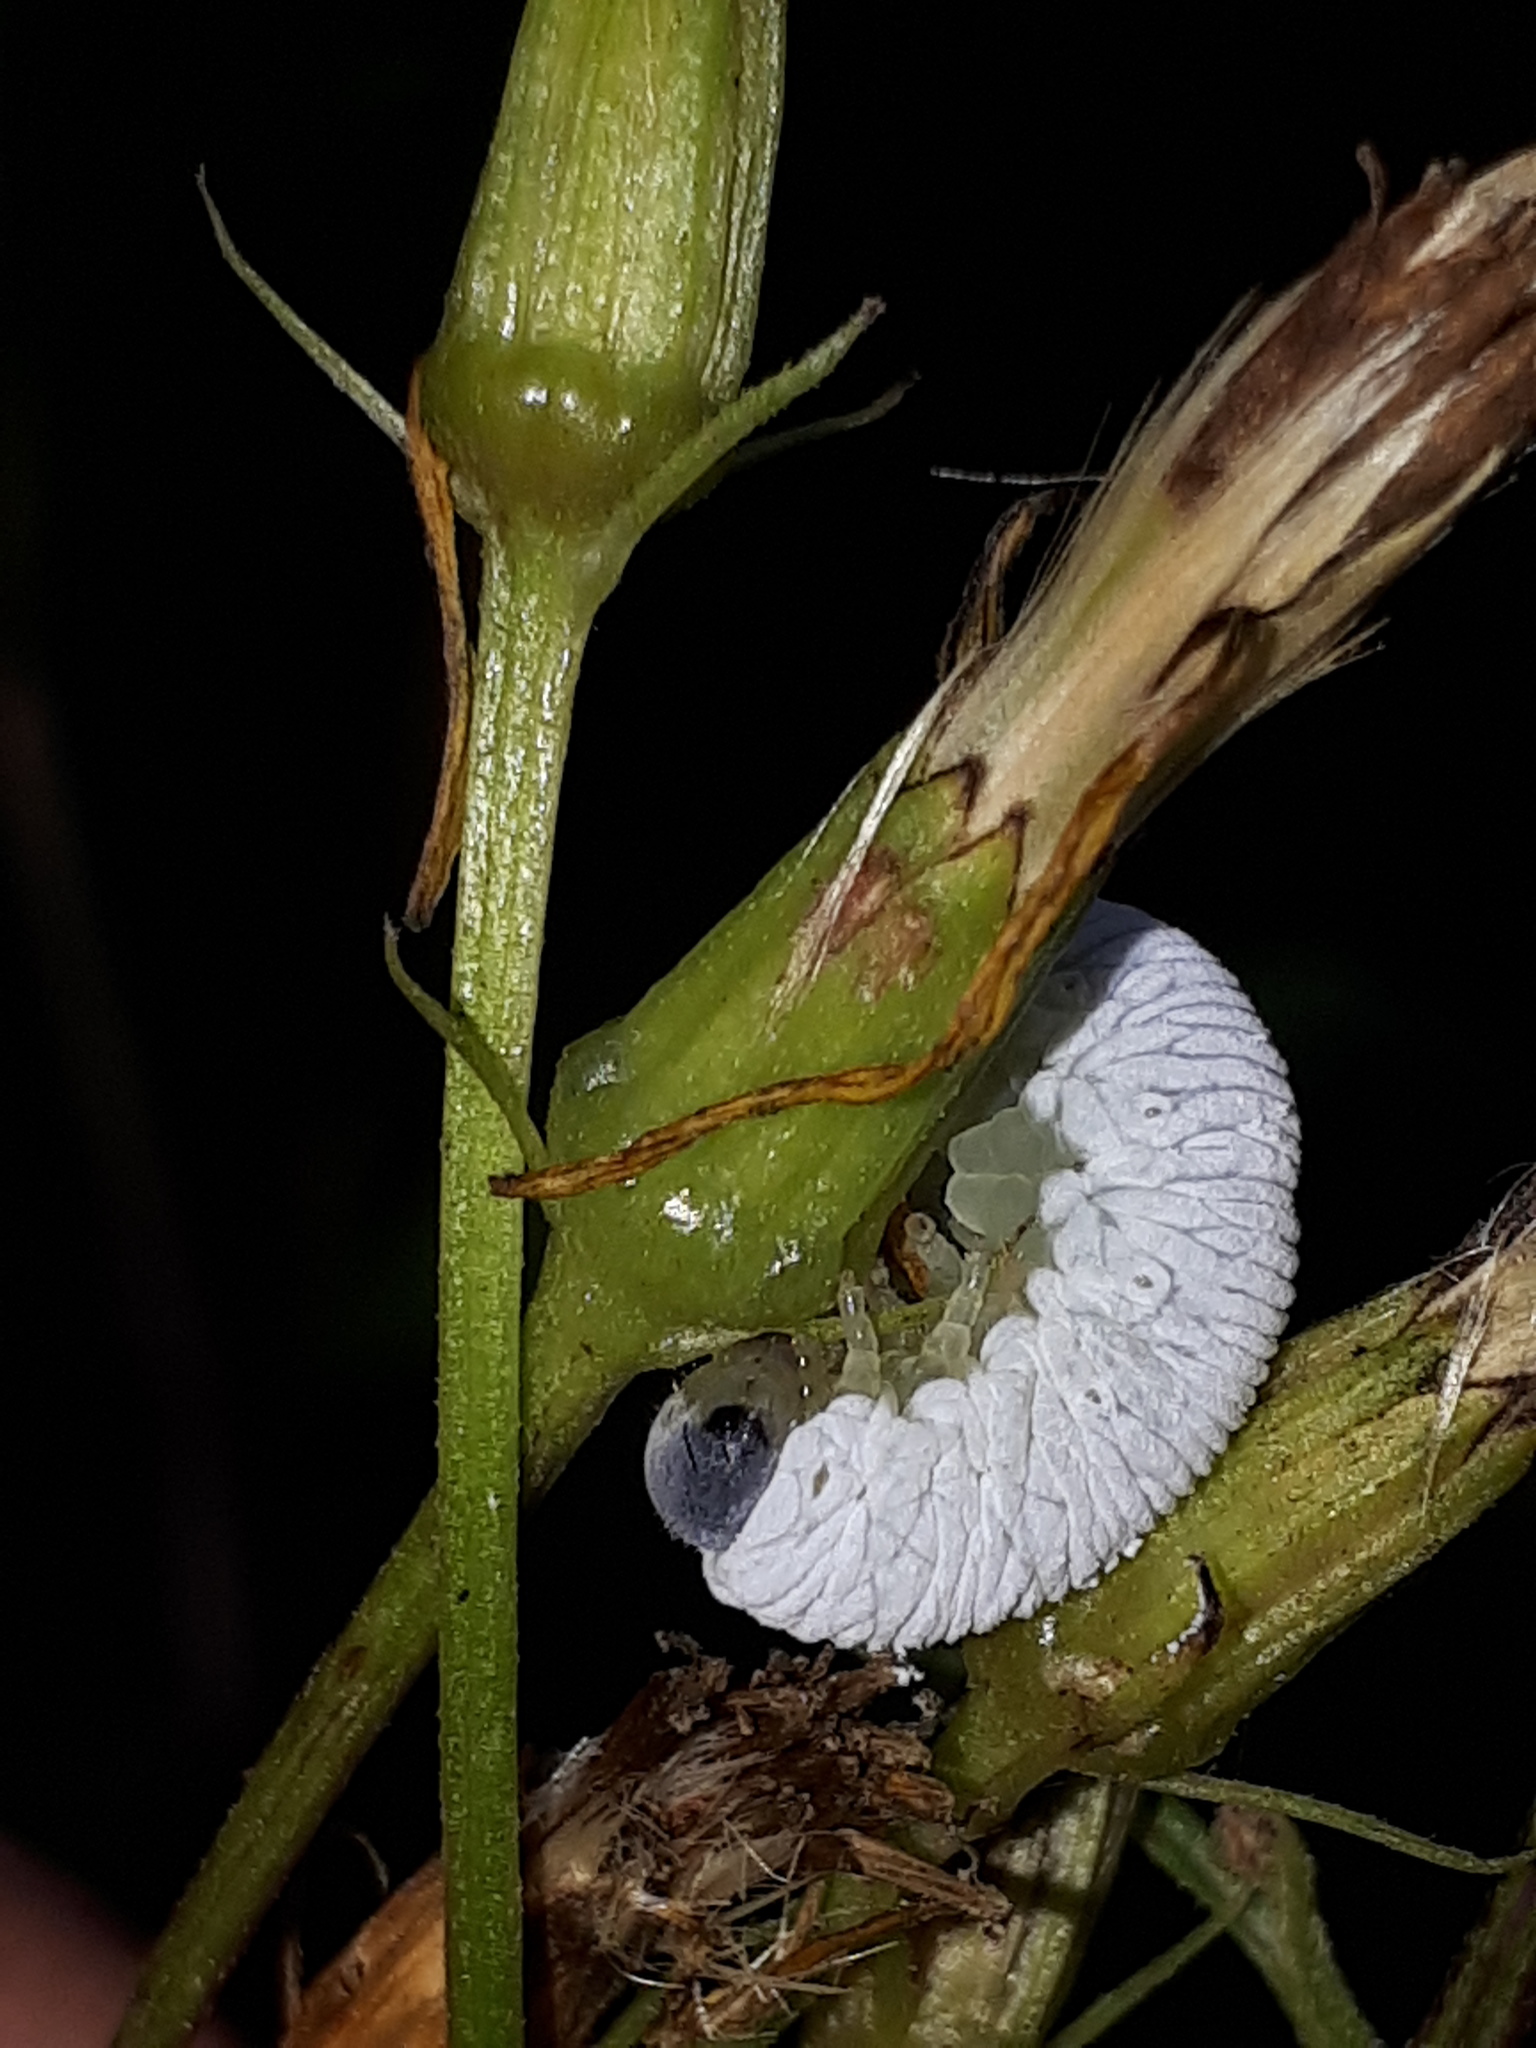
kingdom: Animalia
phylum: Arthropoda
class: Insecta
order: Hymenoptera
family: Tenthredinidae
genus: Tenthredo
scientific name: Tenthredo rubricoxis
